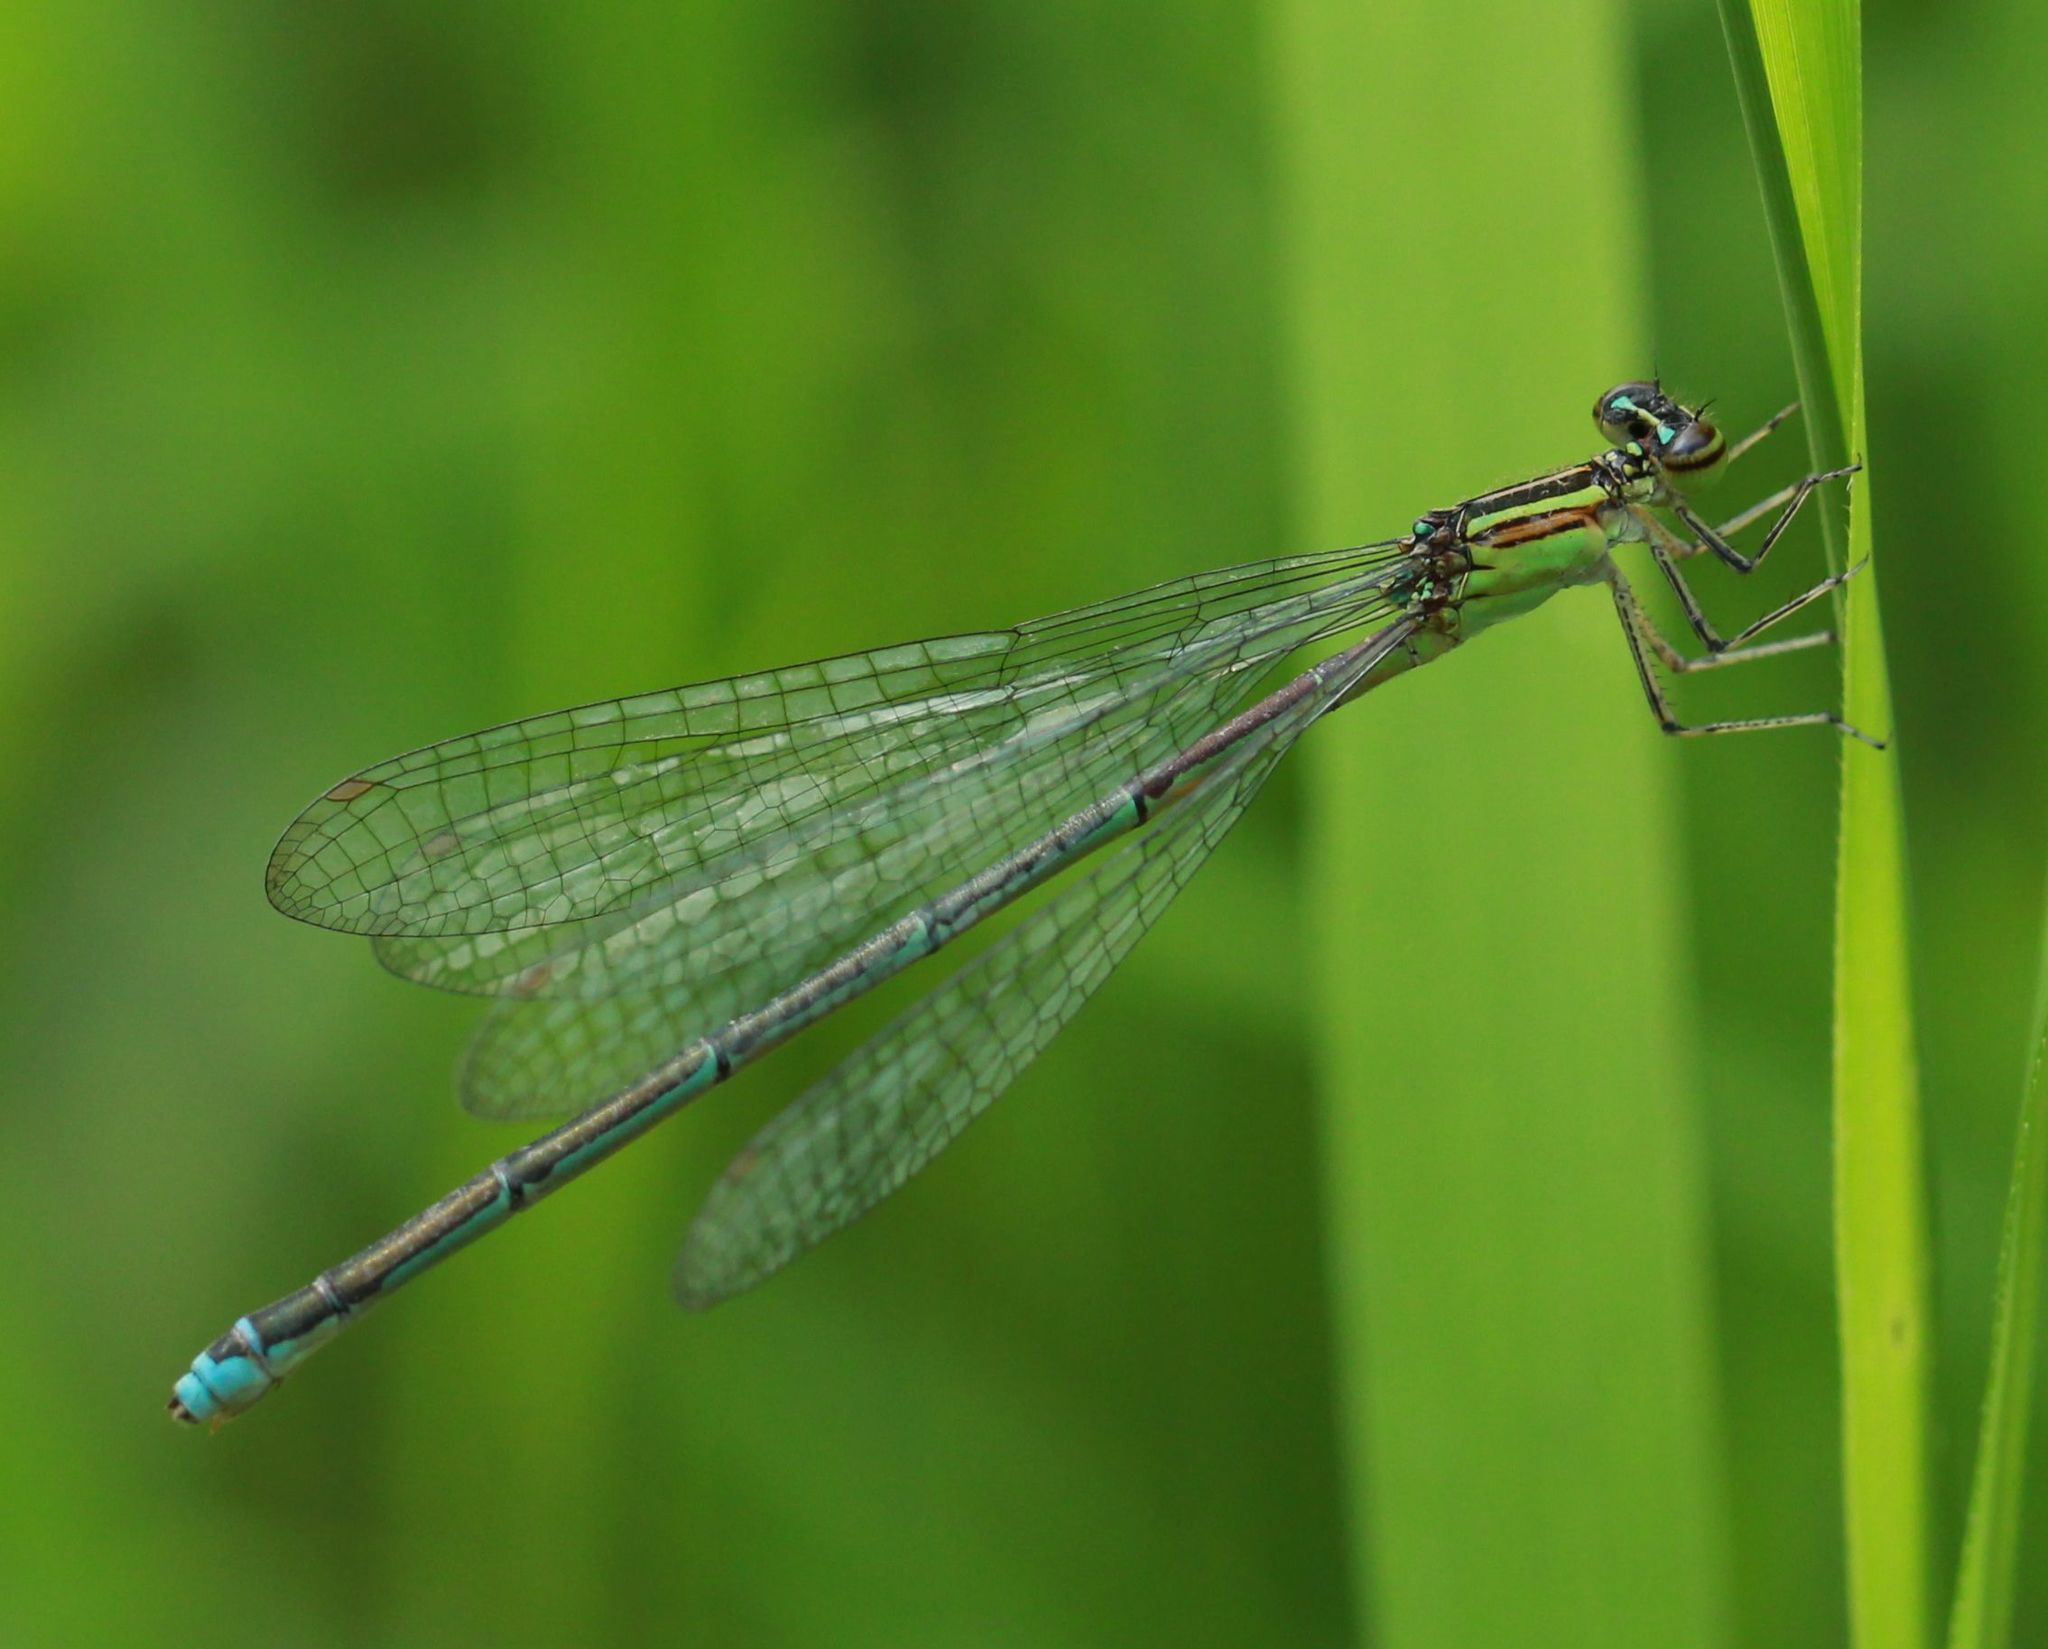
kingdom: Animalia
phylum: Arthropoda
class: Insecta
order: Odonata
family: Coenagrionidae
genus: Enallagma
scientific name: Enallagma exsulans
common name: Stream bluet
